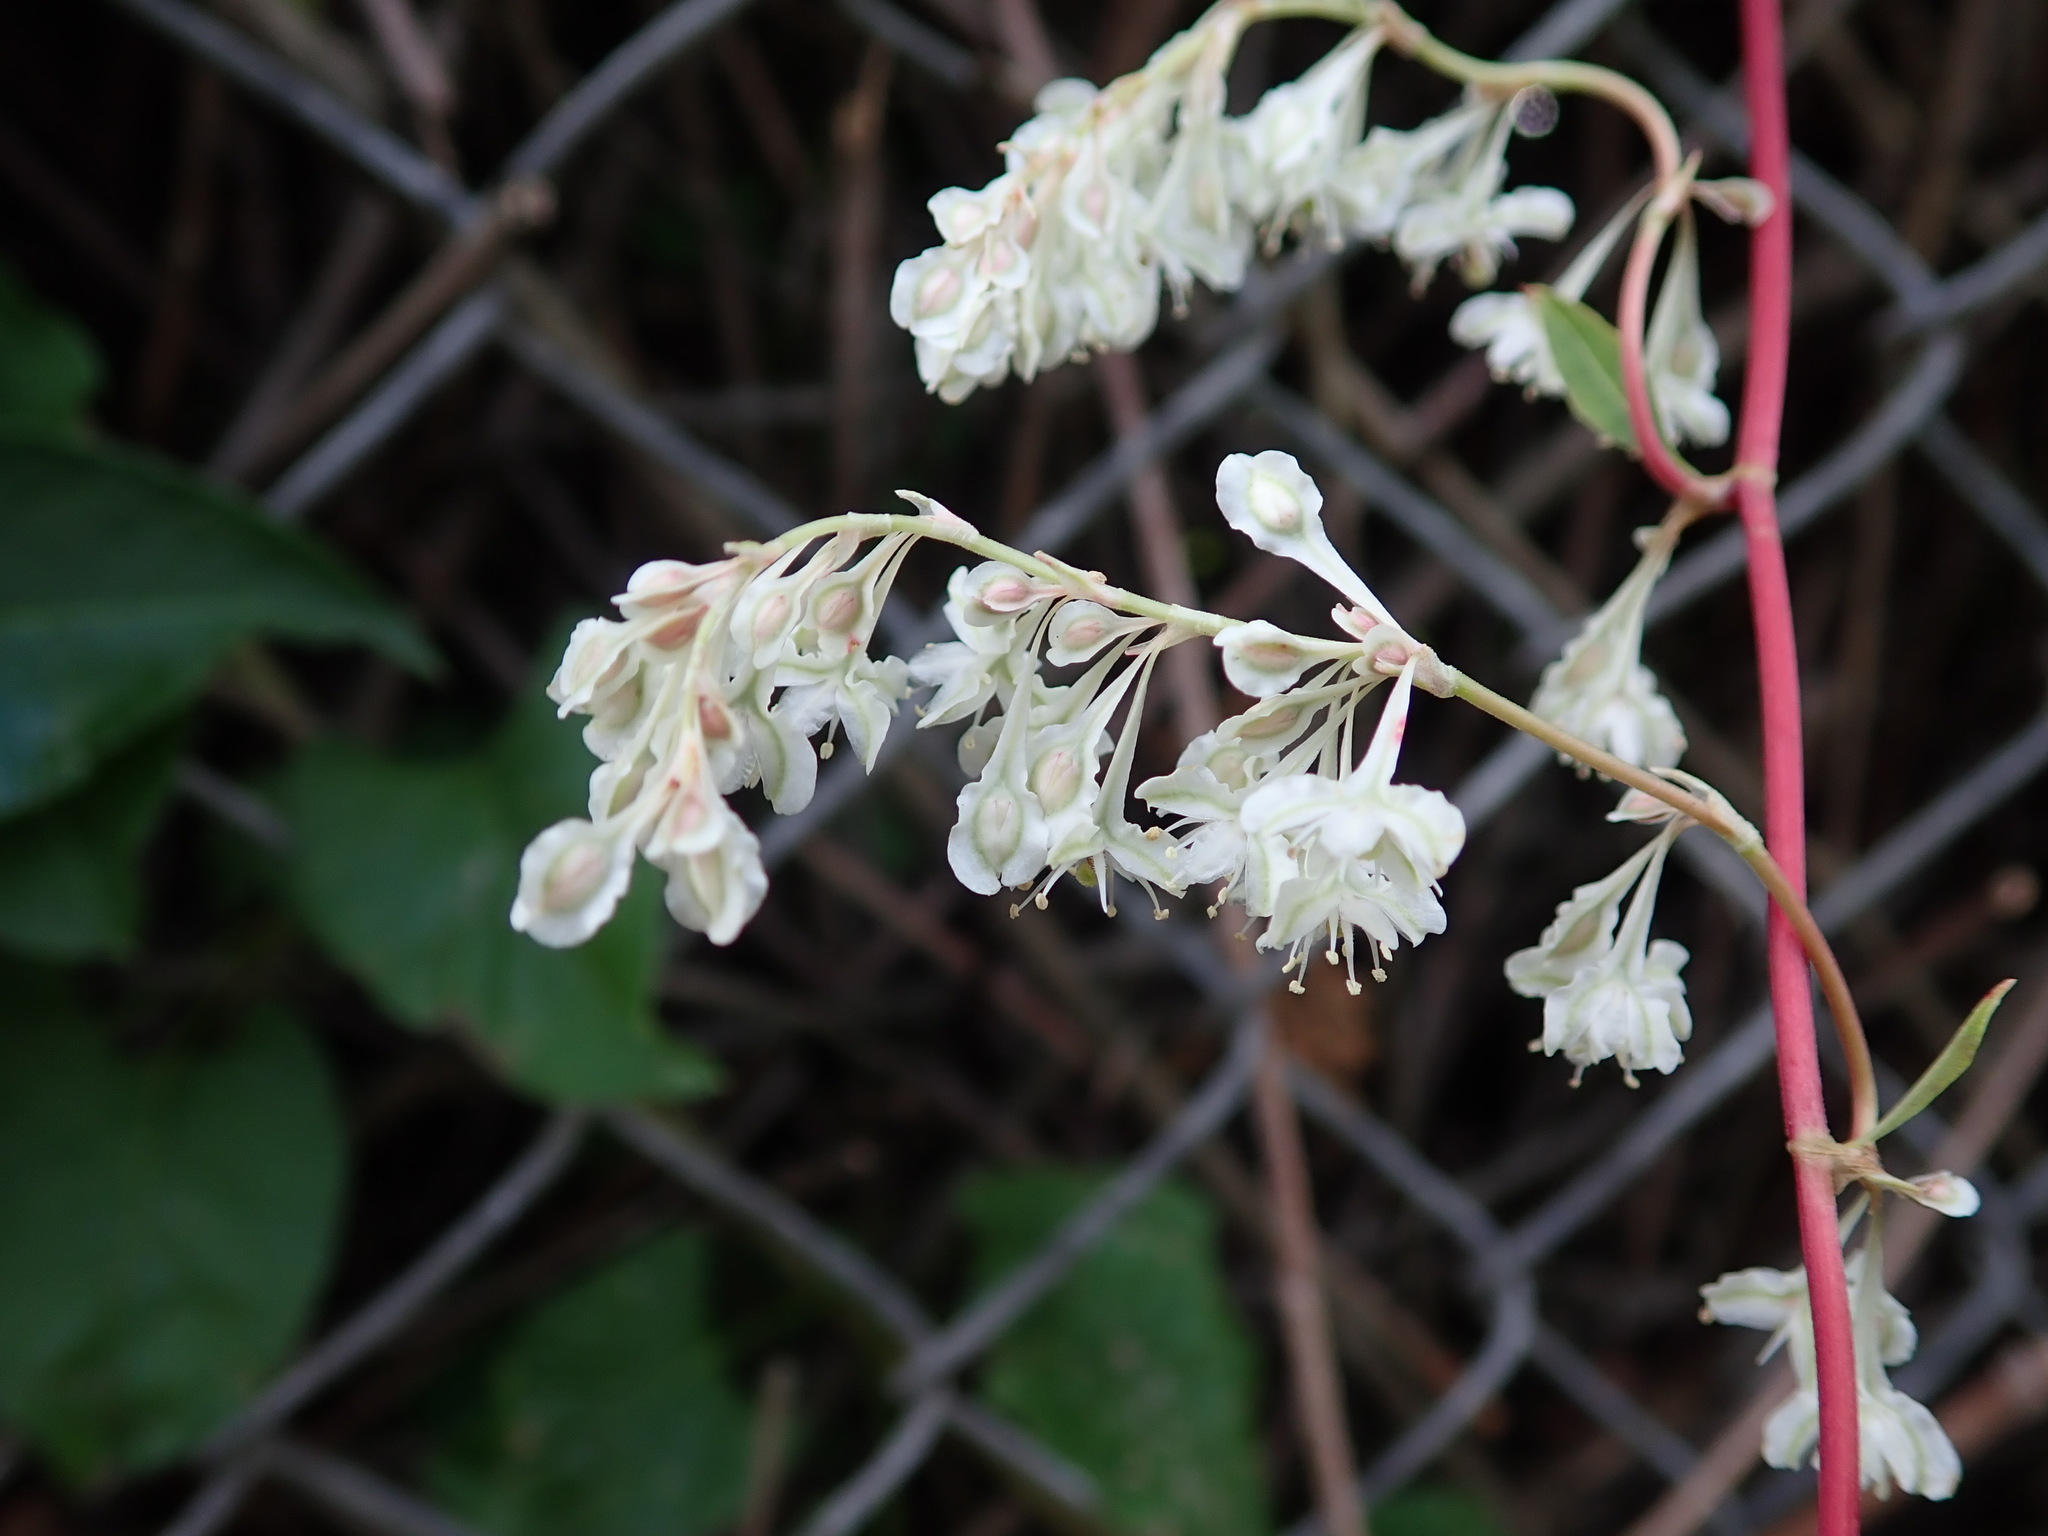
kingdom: Plantae
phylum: Tracheophyta
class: Magnoliopsida
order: Caryophyllales
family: Polygonaceae
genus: Fallopia
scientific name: Fallopia baldschuanica
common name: Russian-vine
